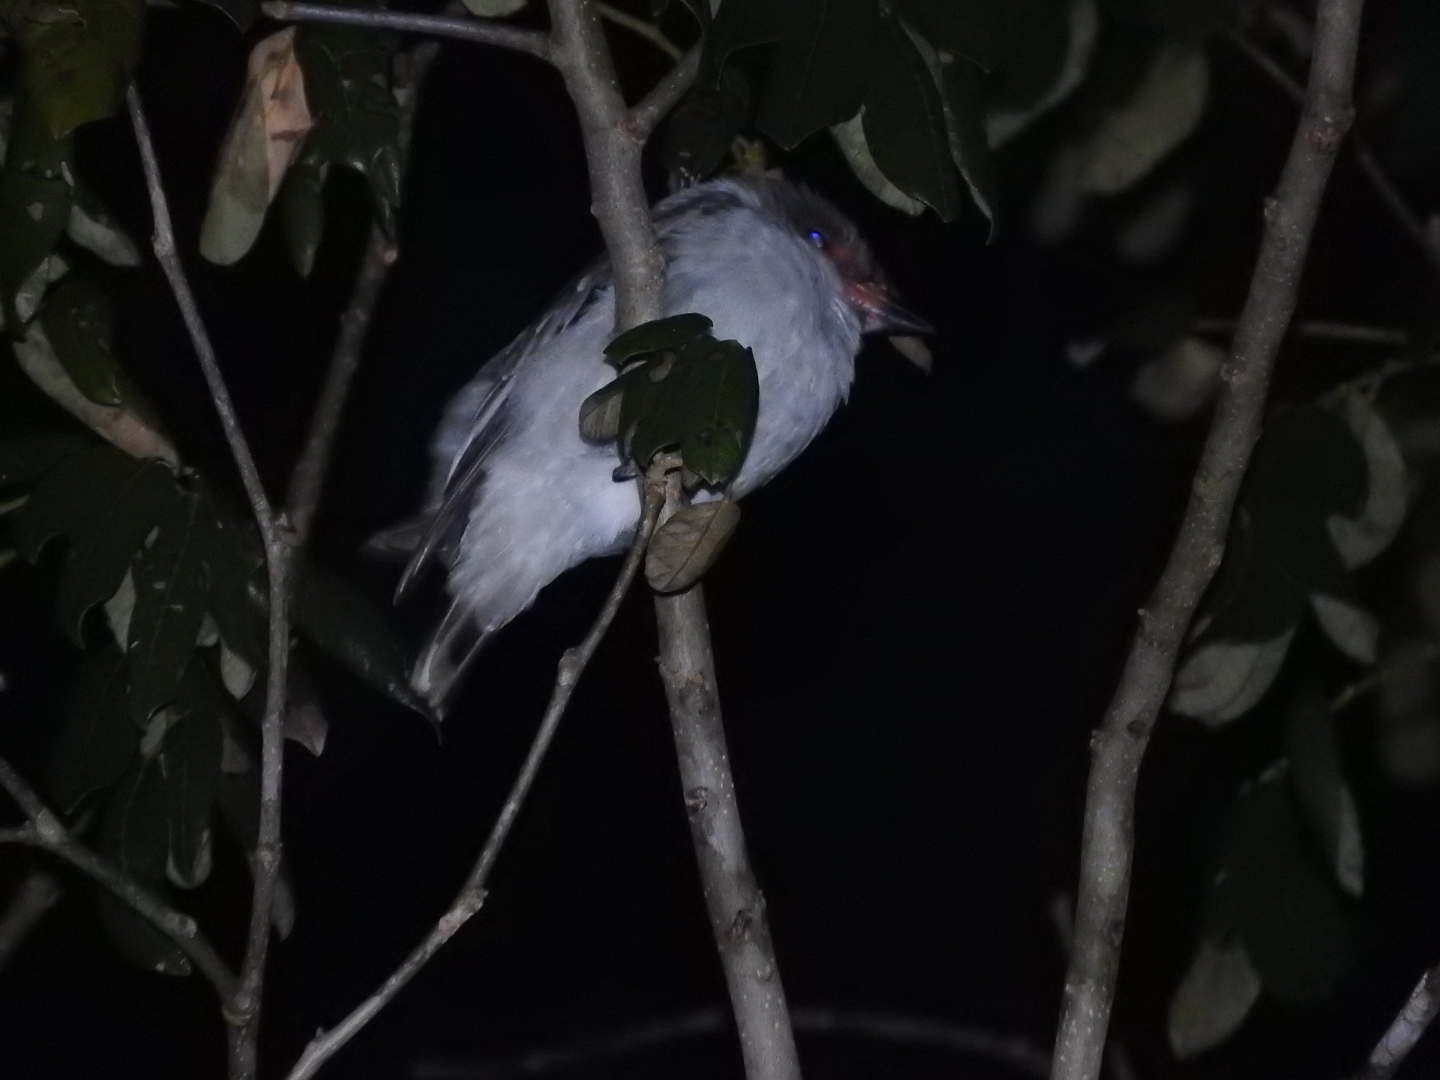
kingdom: Animalia
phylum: Chordata
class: Aves
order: Passeriformes
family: Cotingidae
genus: Tityra
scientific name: Tityra semifasciata
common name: Masked tityra
